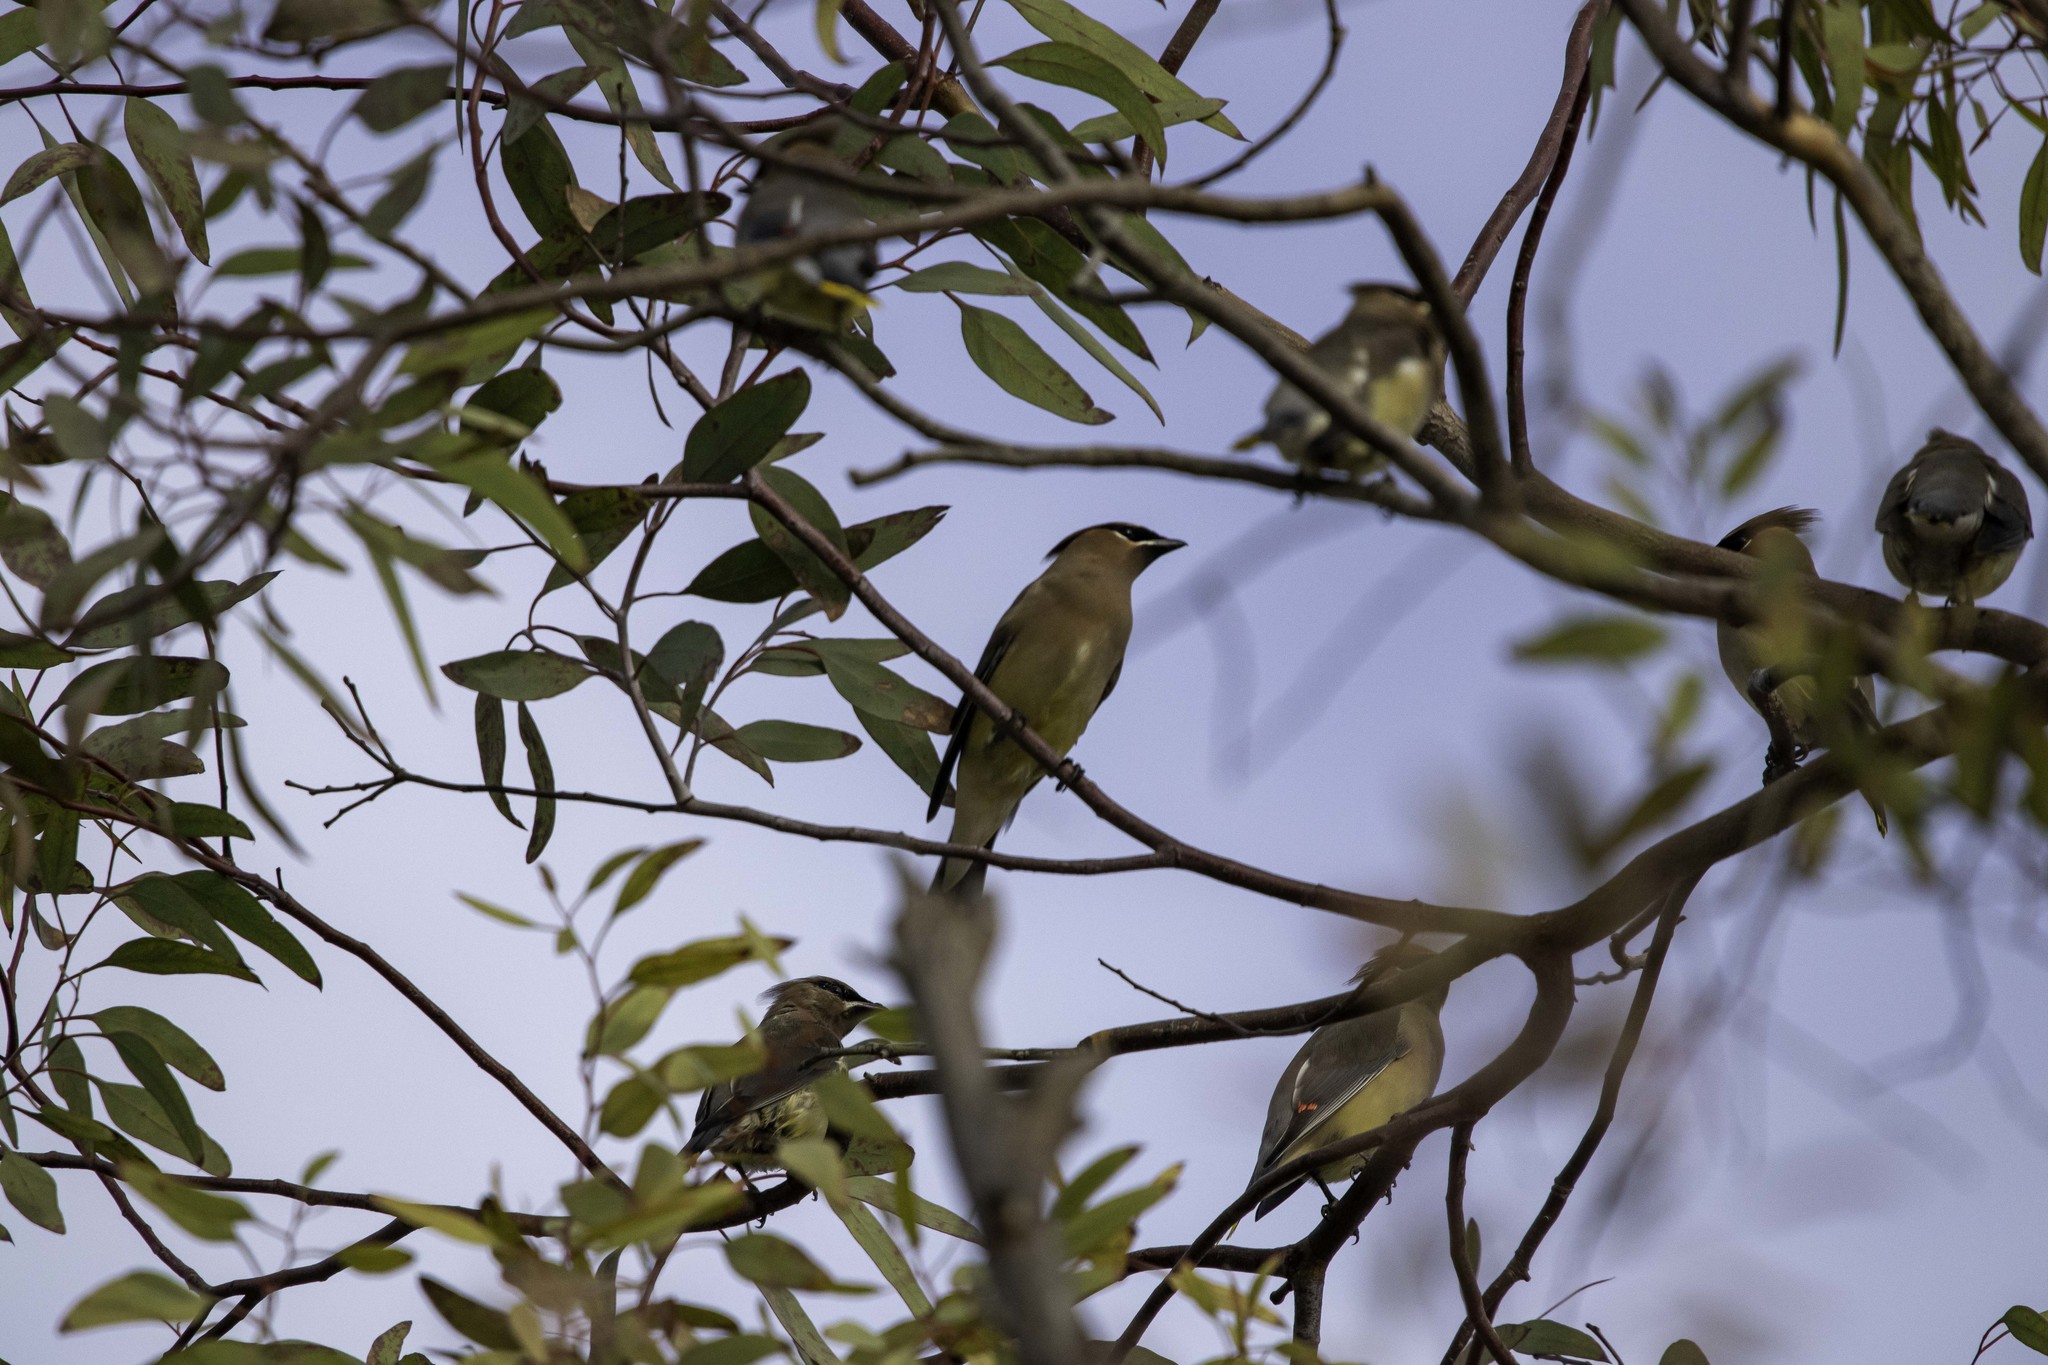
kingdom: Animalia
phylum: Chordata
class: Aves
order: Passeriformes
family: Bombycillidae
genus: Bombycilla
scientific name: Bombycilla cedrorum
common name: Cedar waxwing
